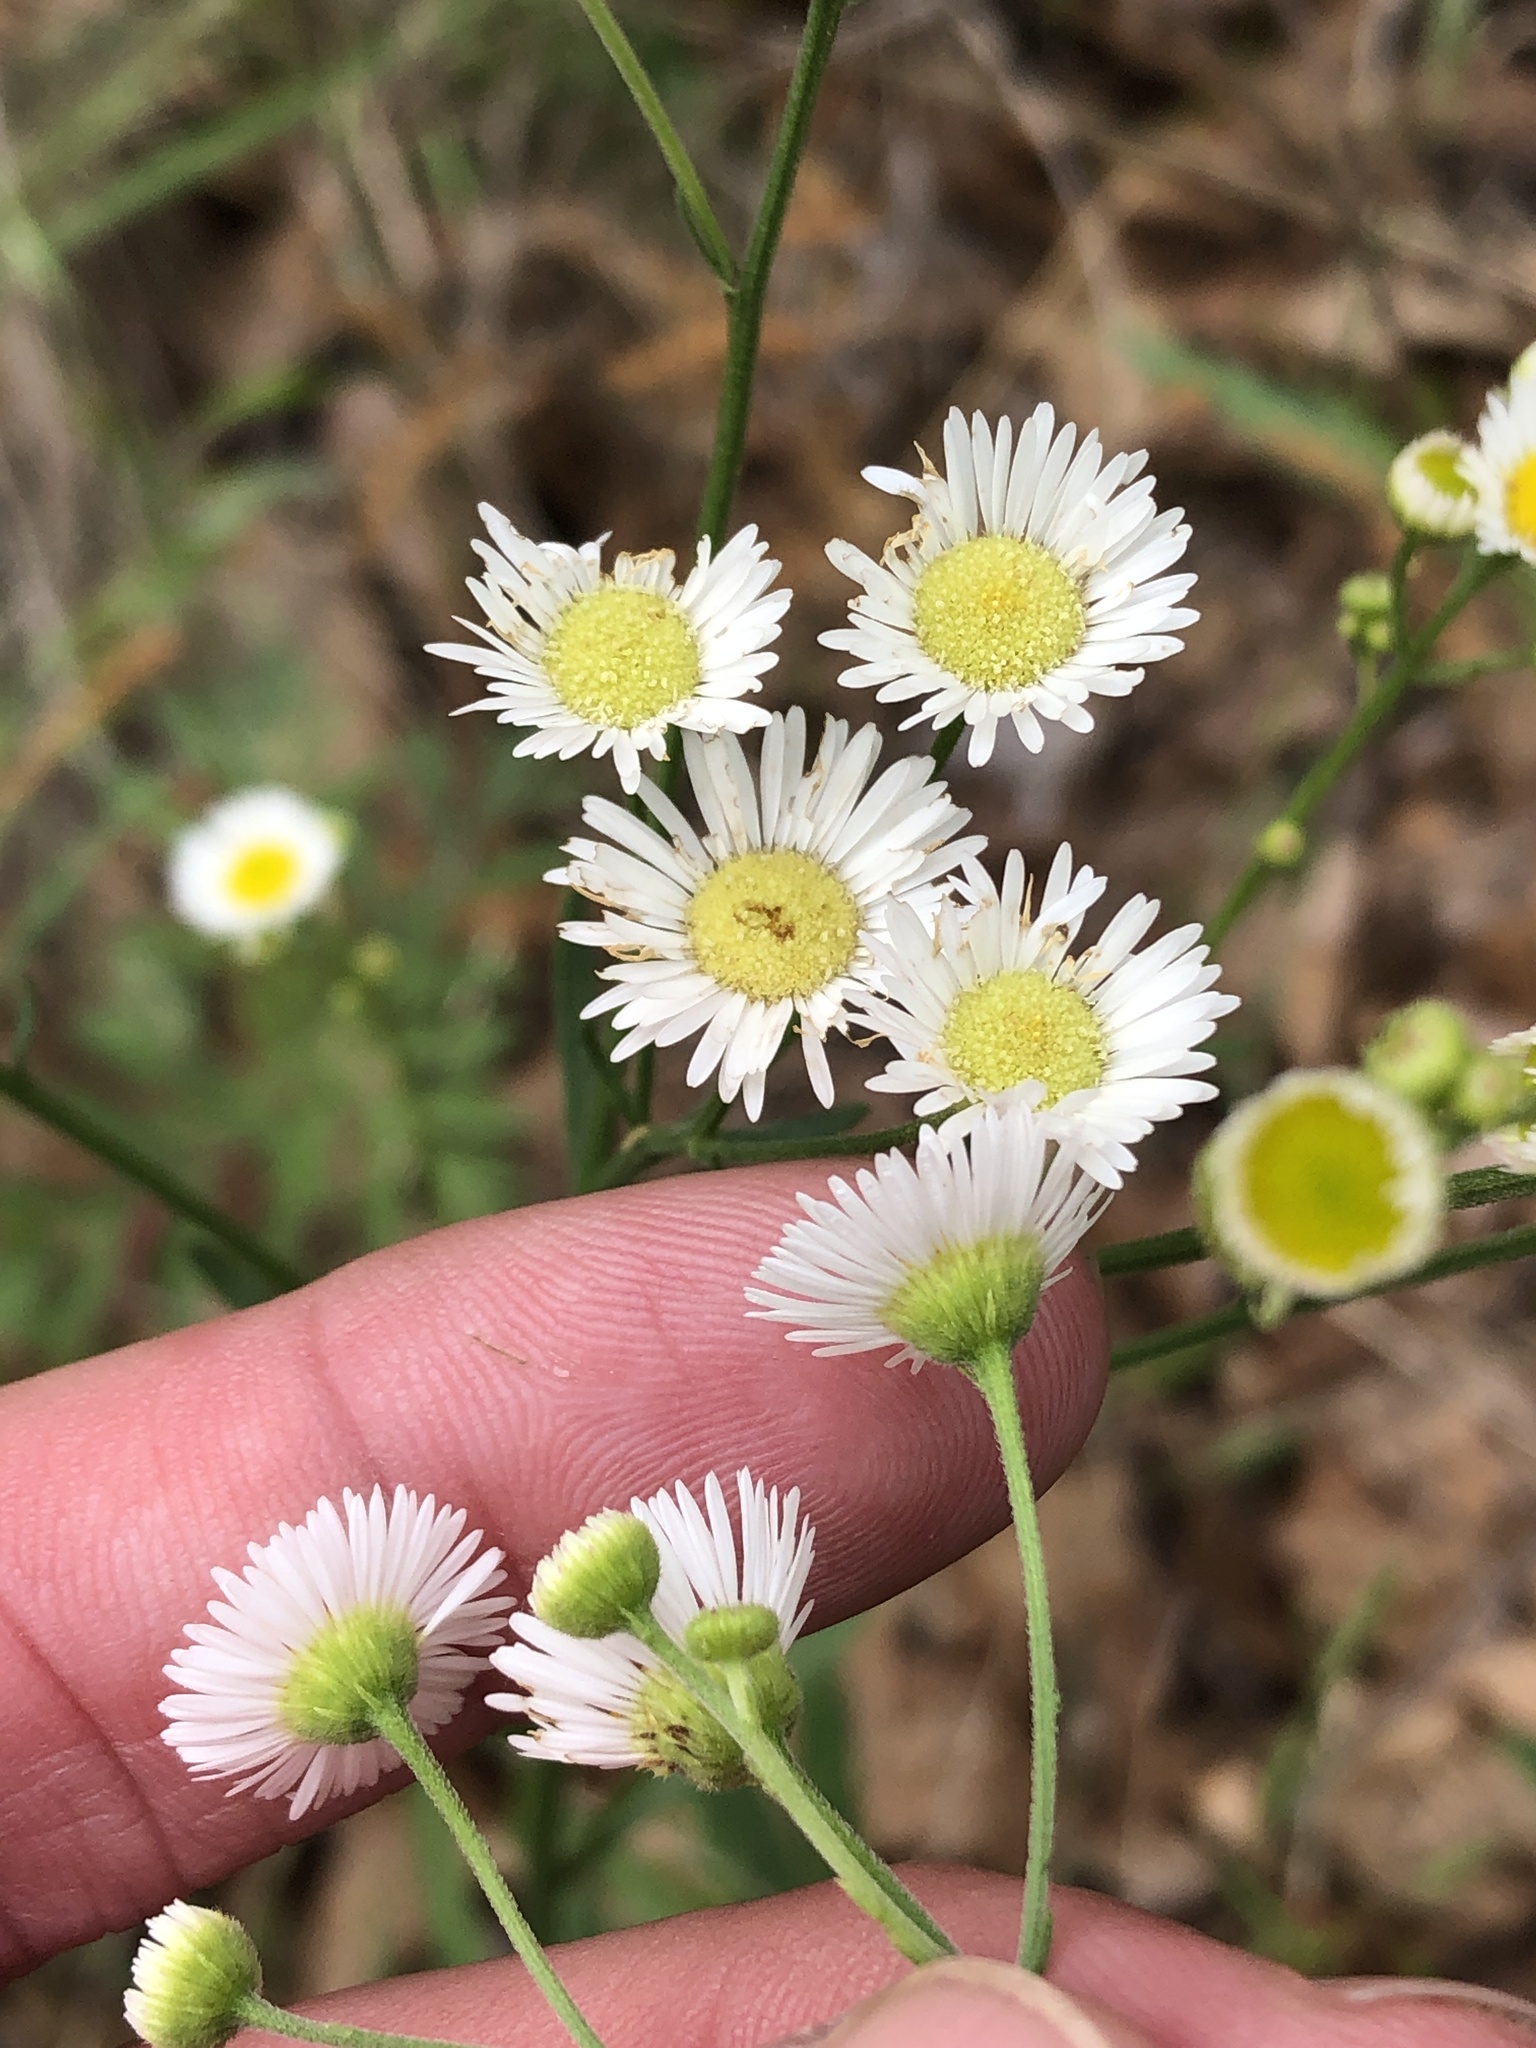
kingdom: Plantae
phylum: Tracheophyta
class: Magnoliopsida
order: Asterales
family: Asteraceae
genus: Erigeron
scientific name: Erigeron strigosus
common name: Common eastern fleabane
